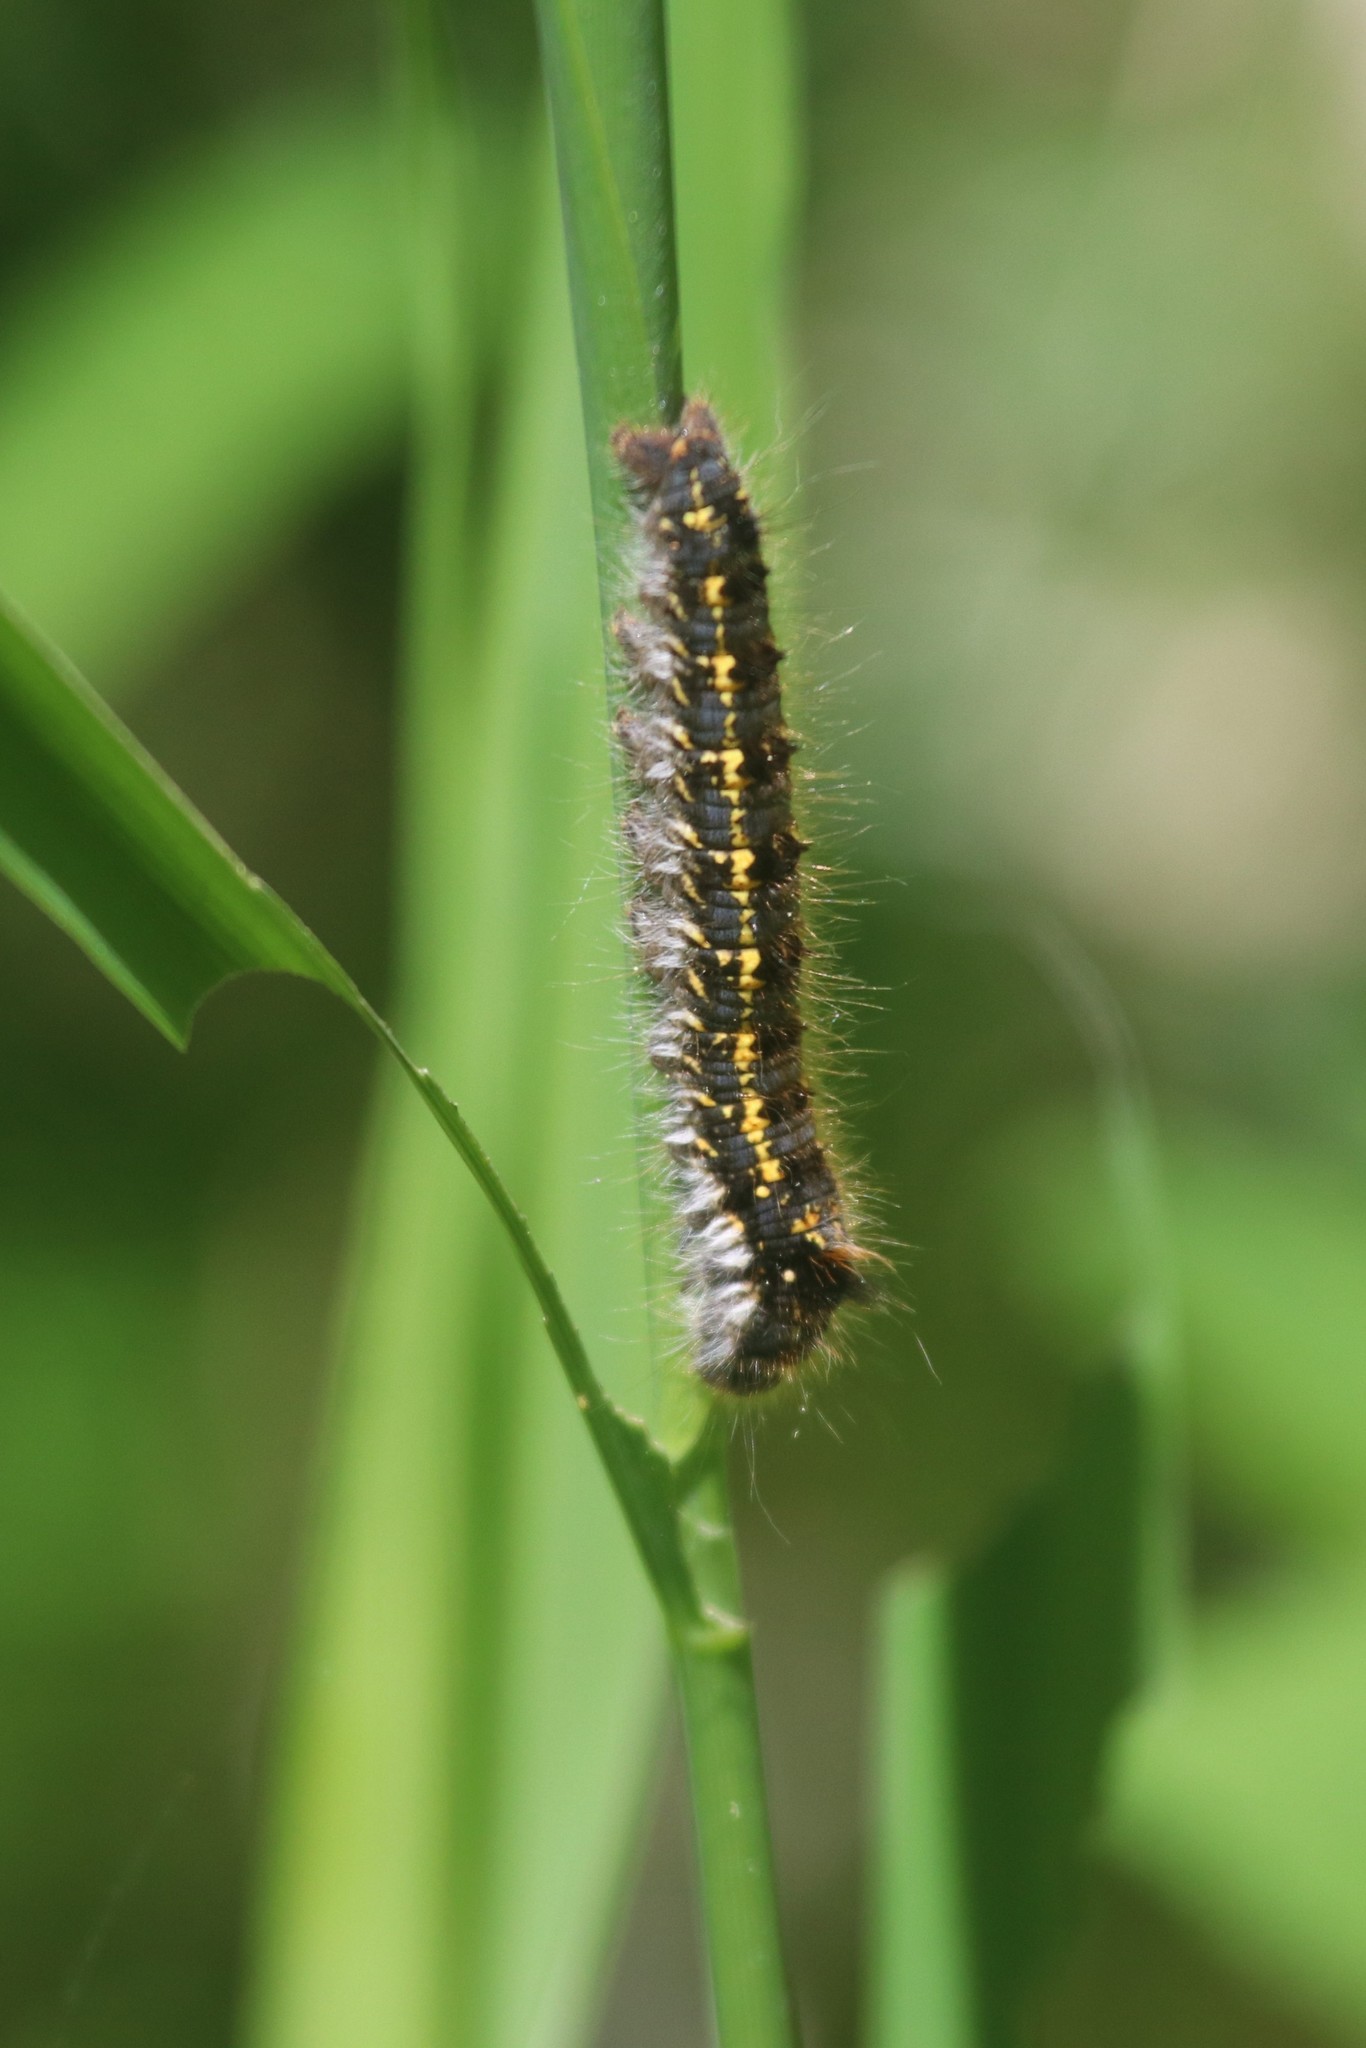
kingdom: Animalia
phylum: Arthropoda
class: Insecta
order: Lepidoptera
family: Lasiocampidae
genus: Euthrix
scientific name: Euthrix potatoria
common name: Drinker
